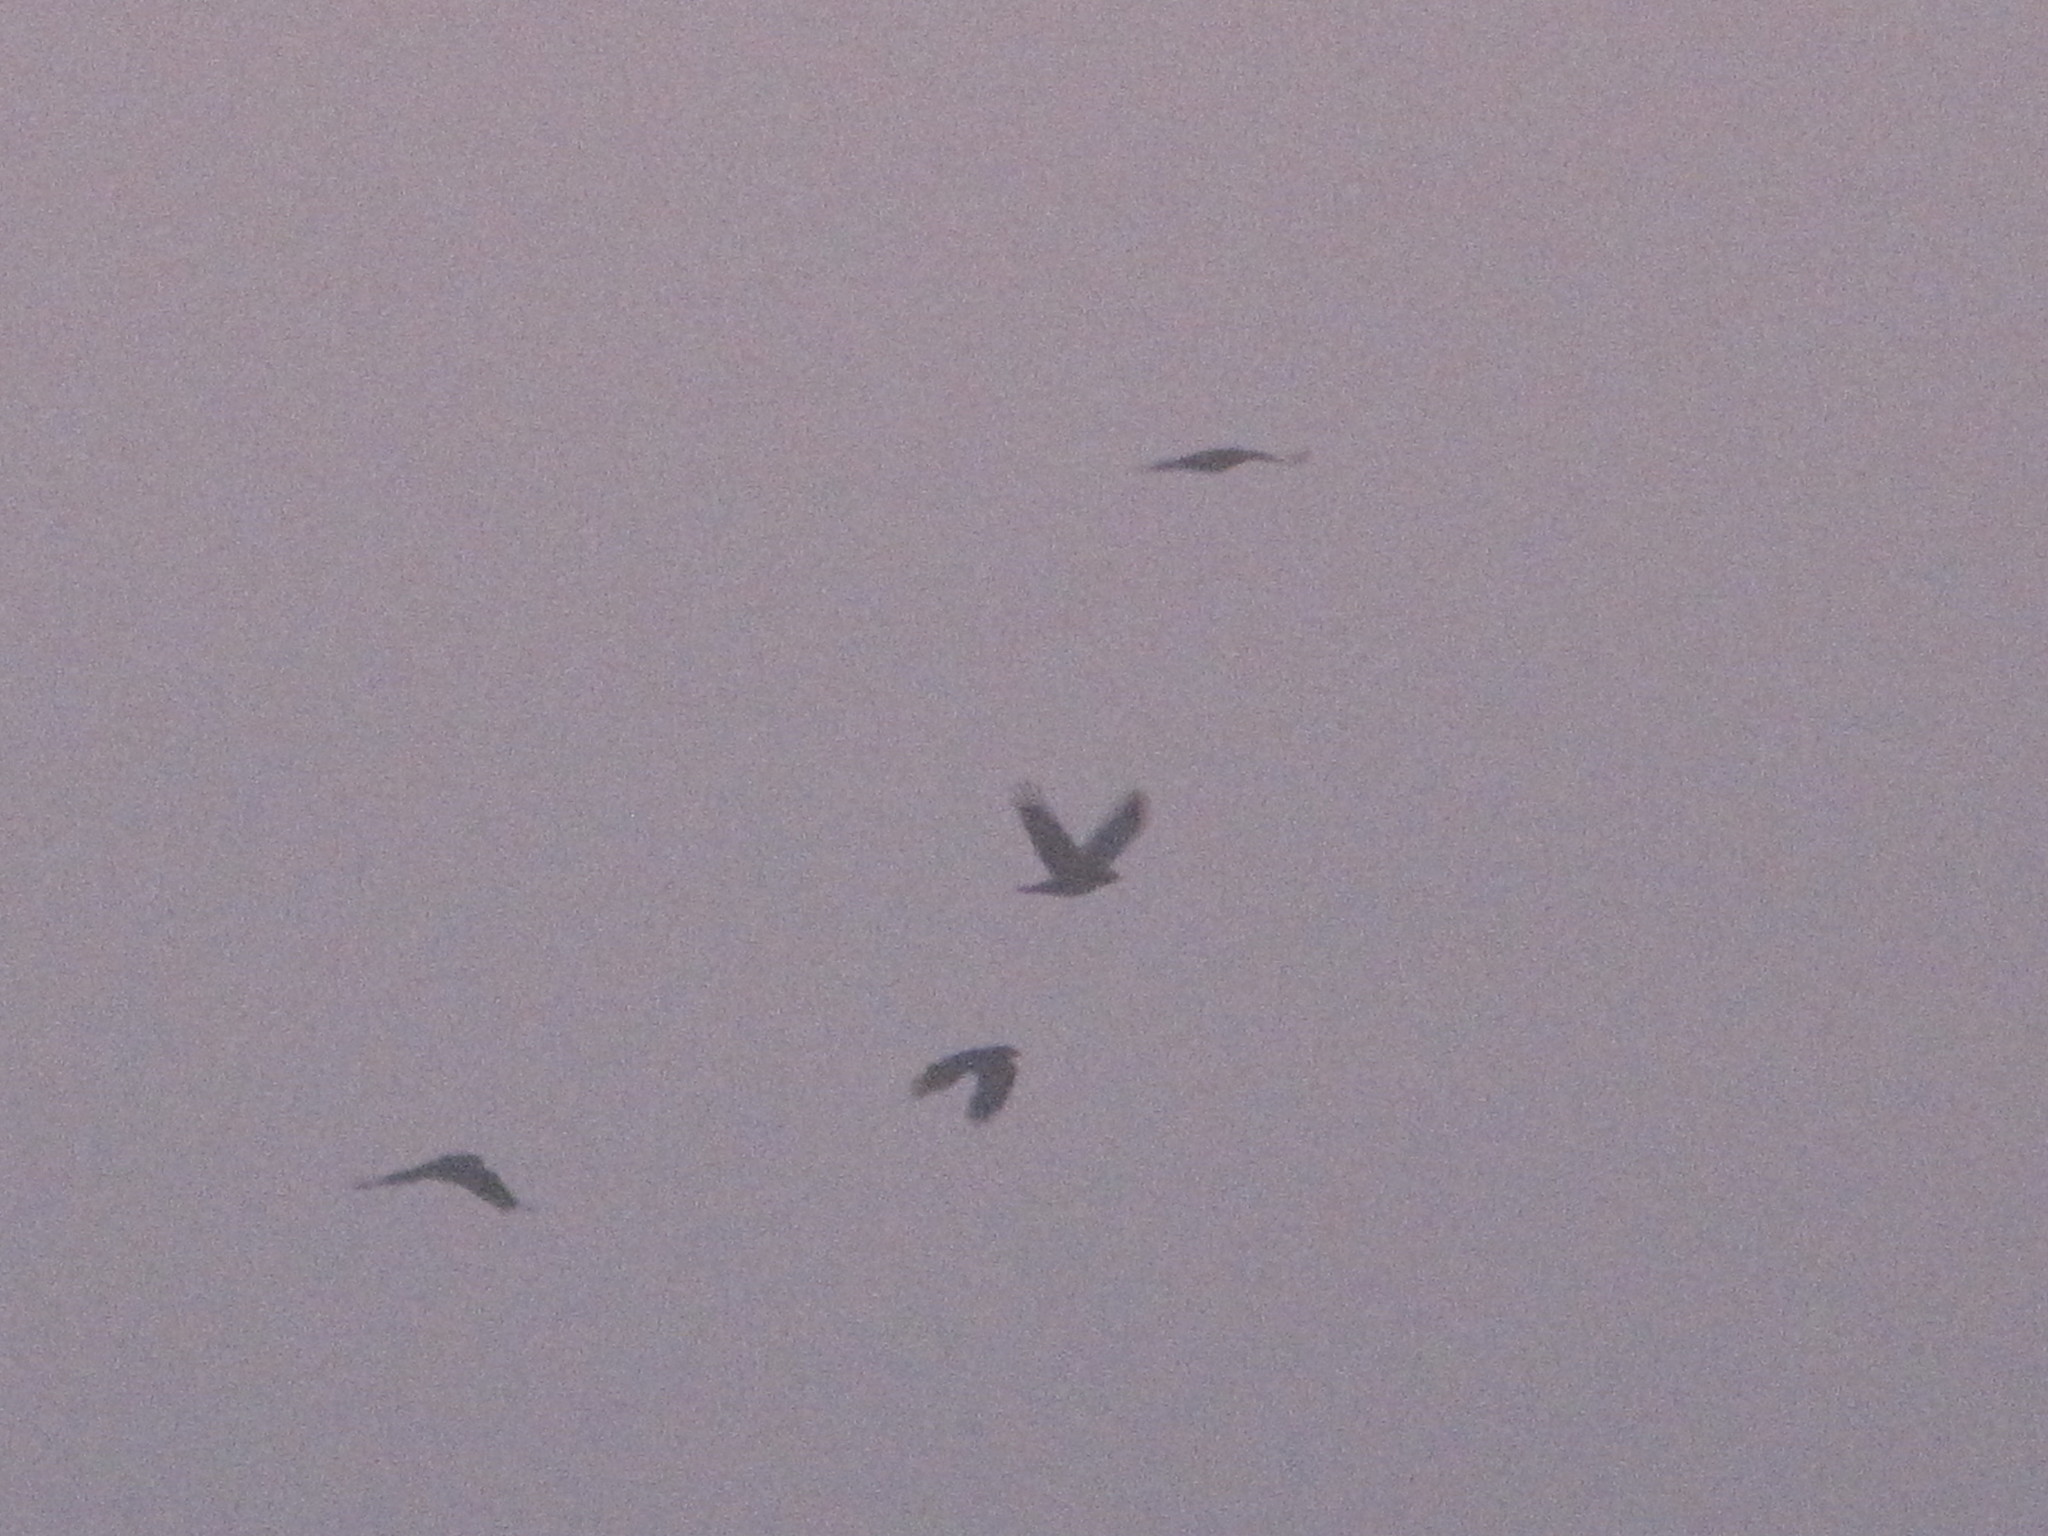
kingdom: Animalia
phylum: Chordata
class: Aves
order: Passeriformes
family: Corvidae
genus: Corvus
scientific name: Corvus brachyrhynchos
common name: American crow
